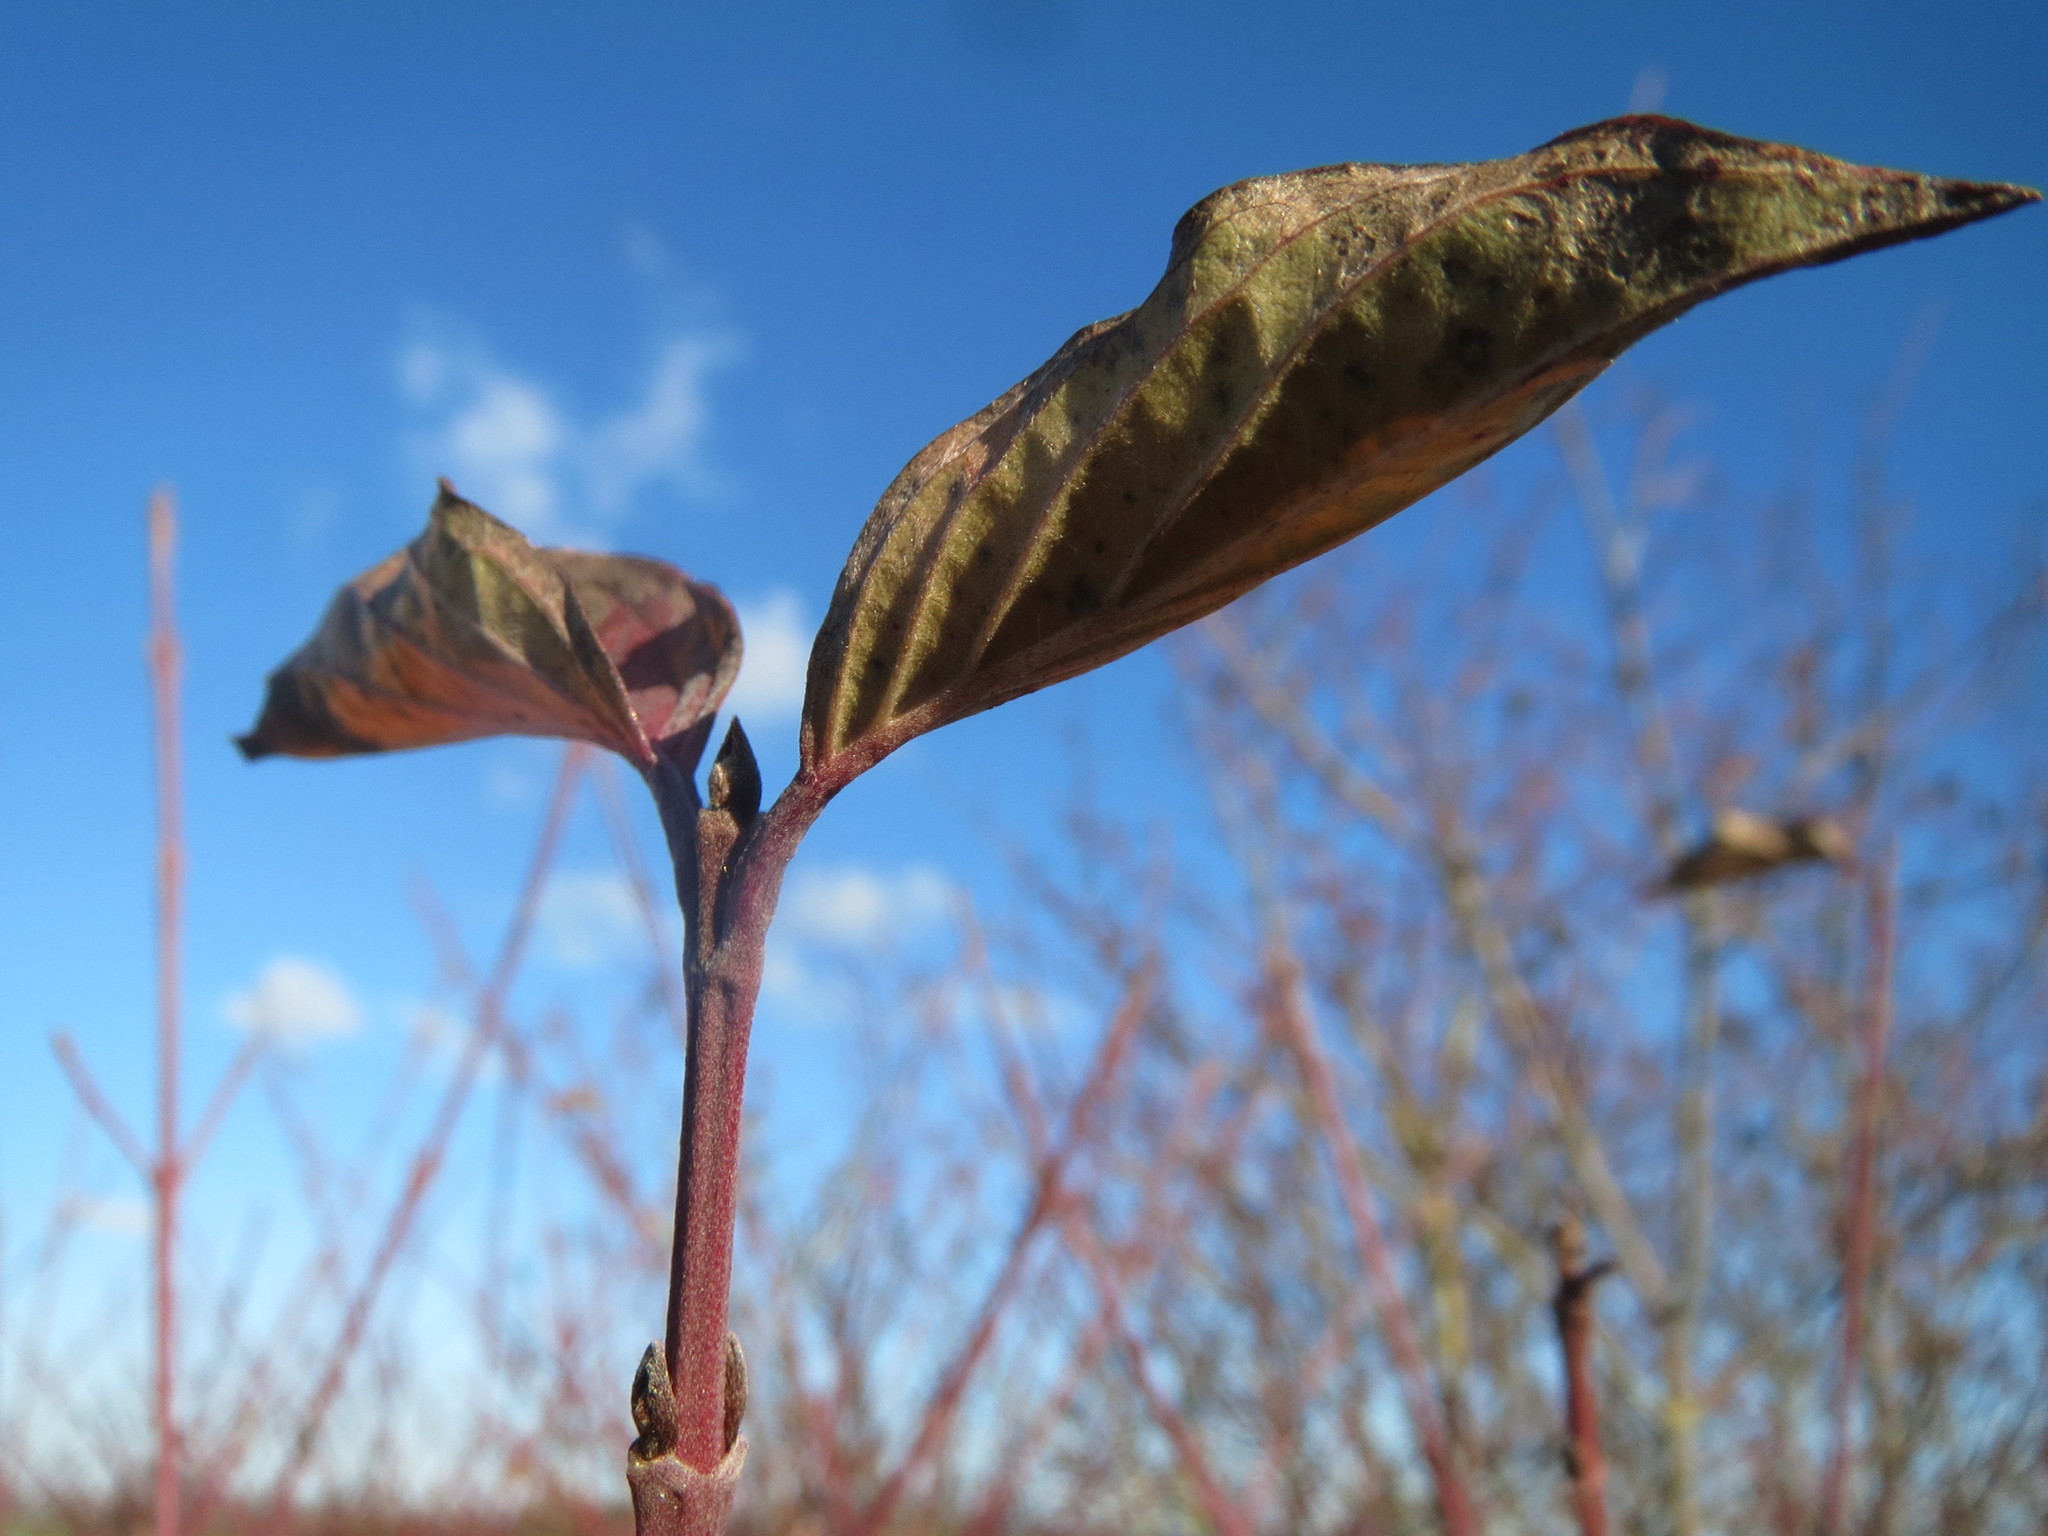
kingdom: Plantae
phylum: Tracheophyta
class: Magnoliopsida
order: Cornales
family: Cornaceae
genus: Cornus
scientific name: Cornus sanguinea
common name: Dogwood
